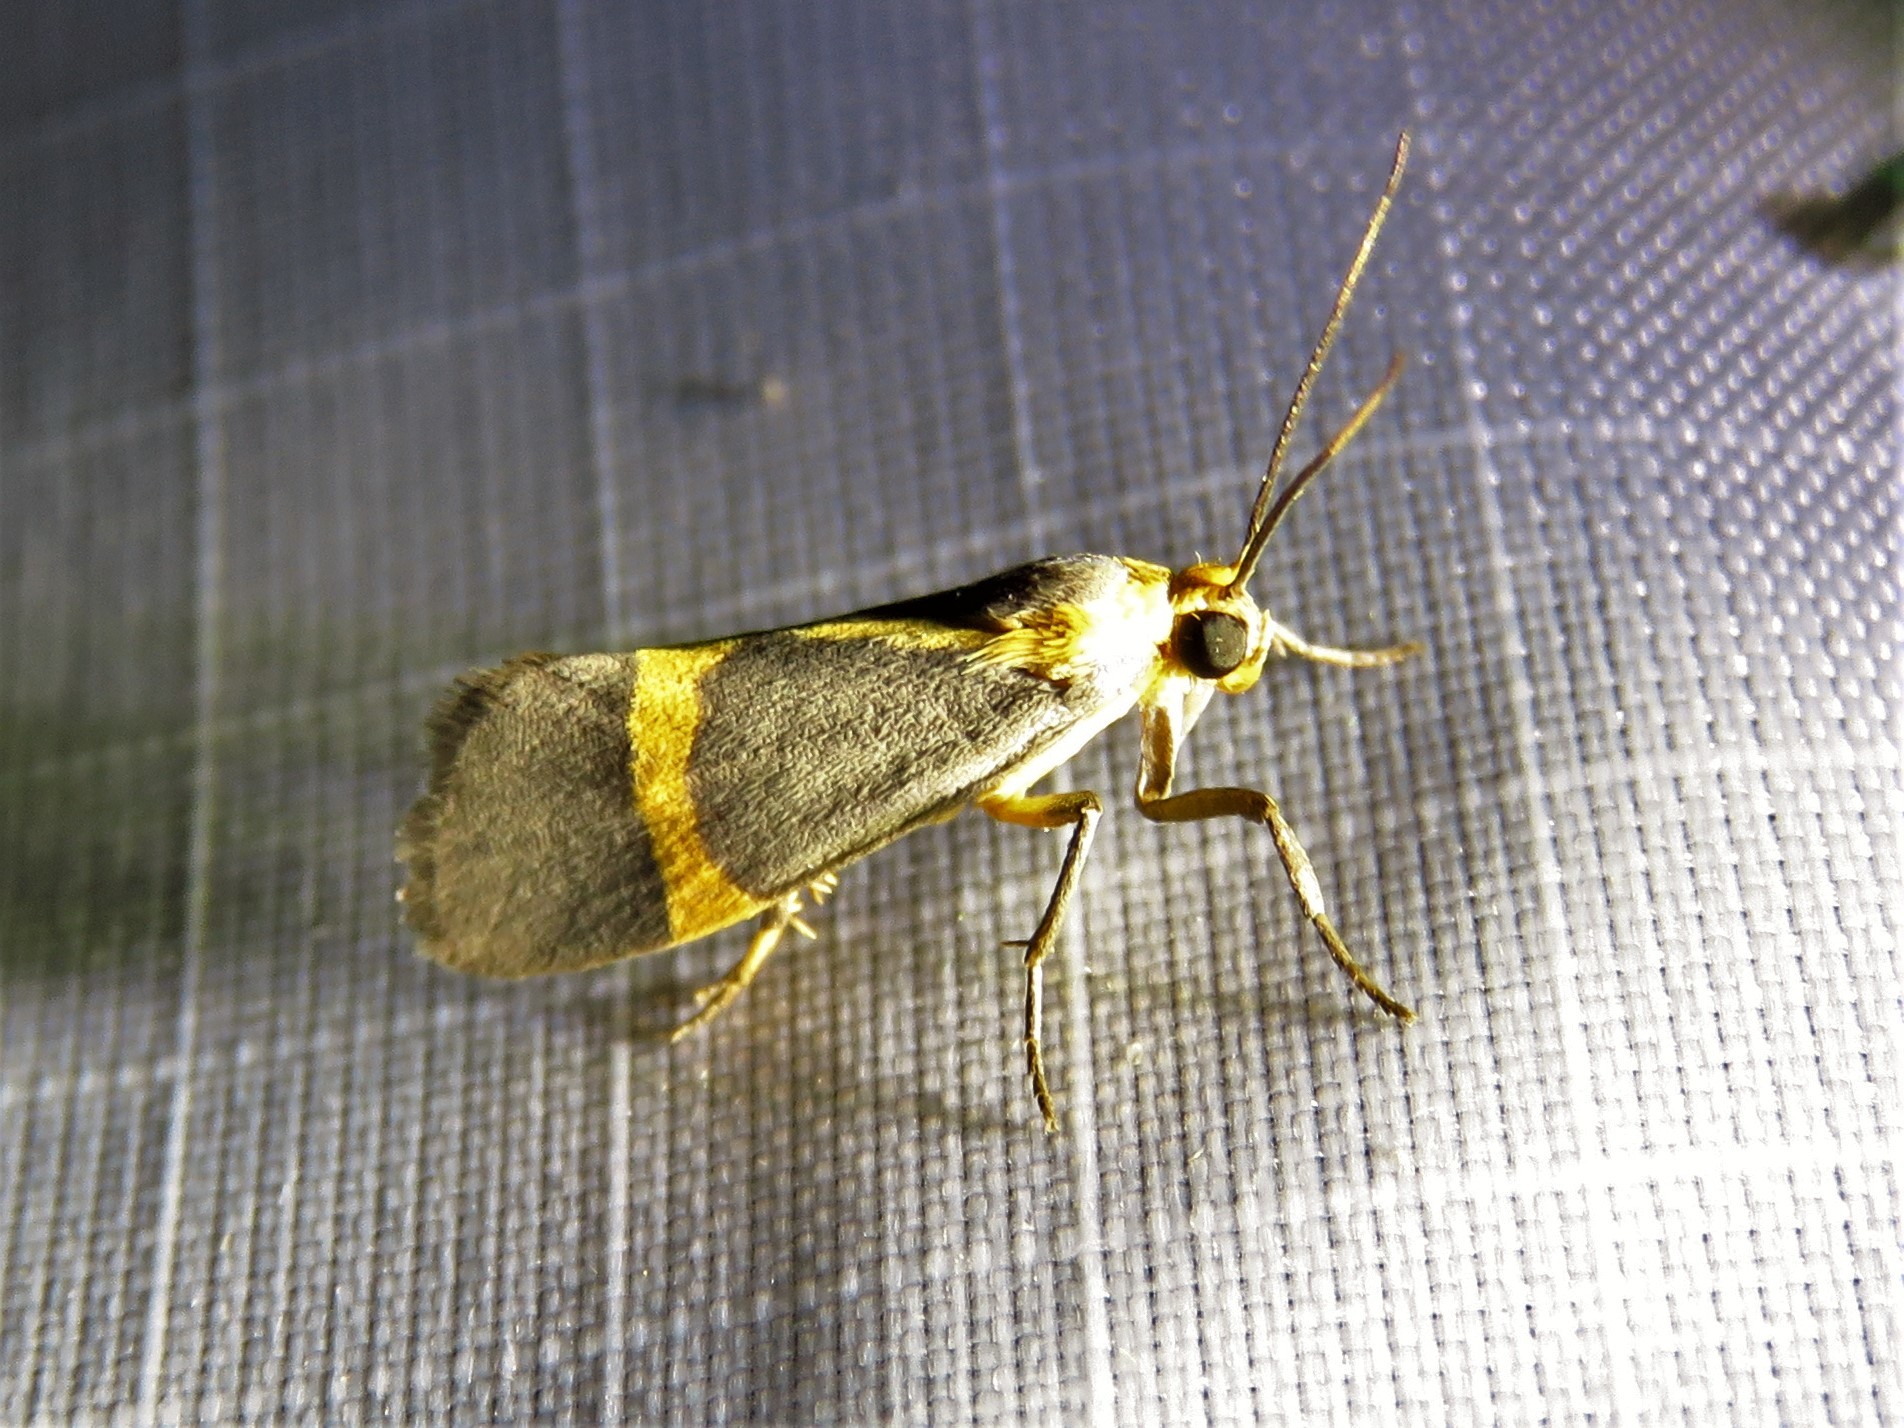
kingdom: Animalia
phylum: Arthropoda
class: Insecta
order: Lepidoptera
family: Erebidae
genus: Cisthene
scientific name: Cisthene tenuifascia
